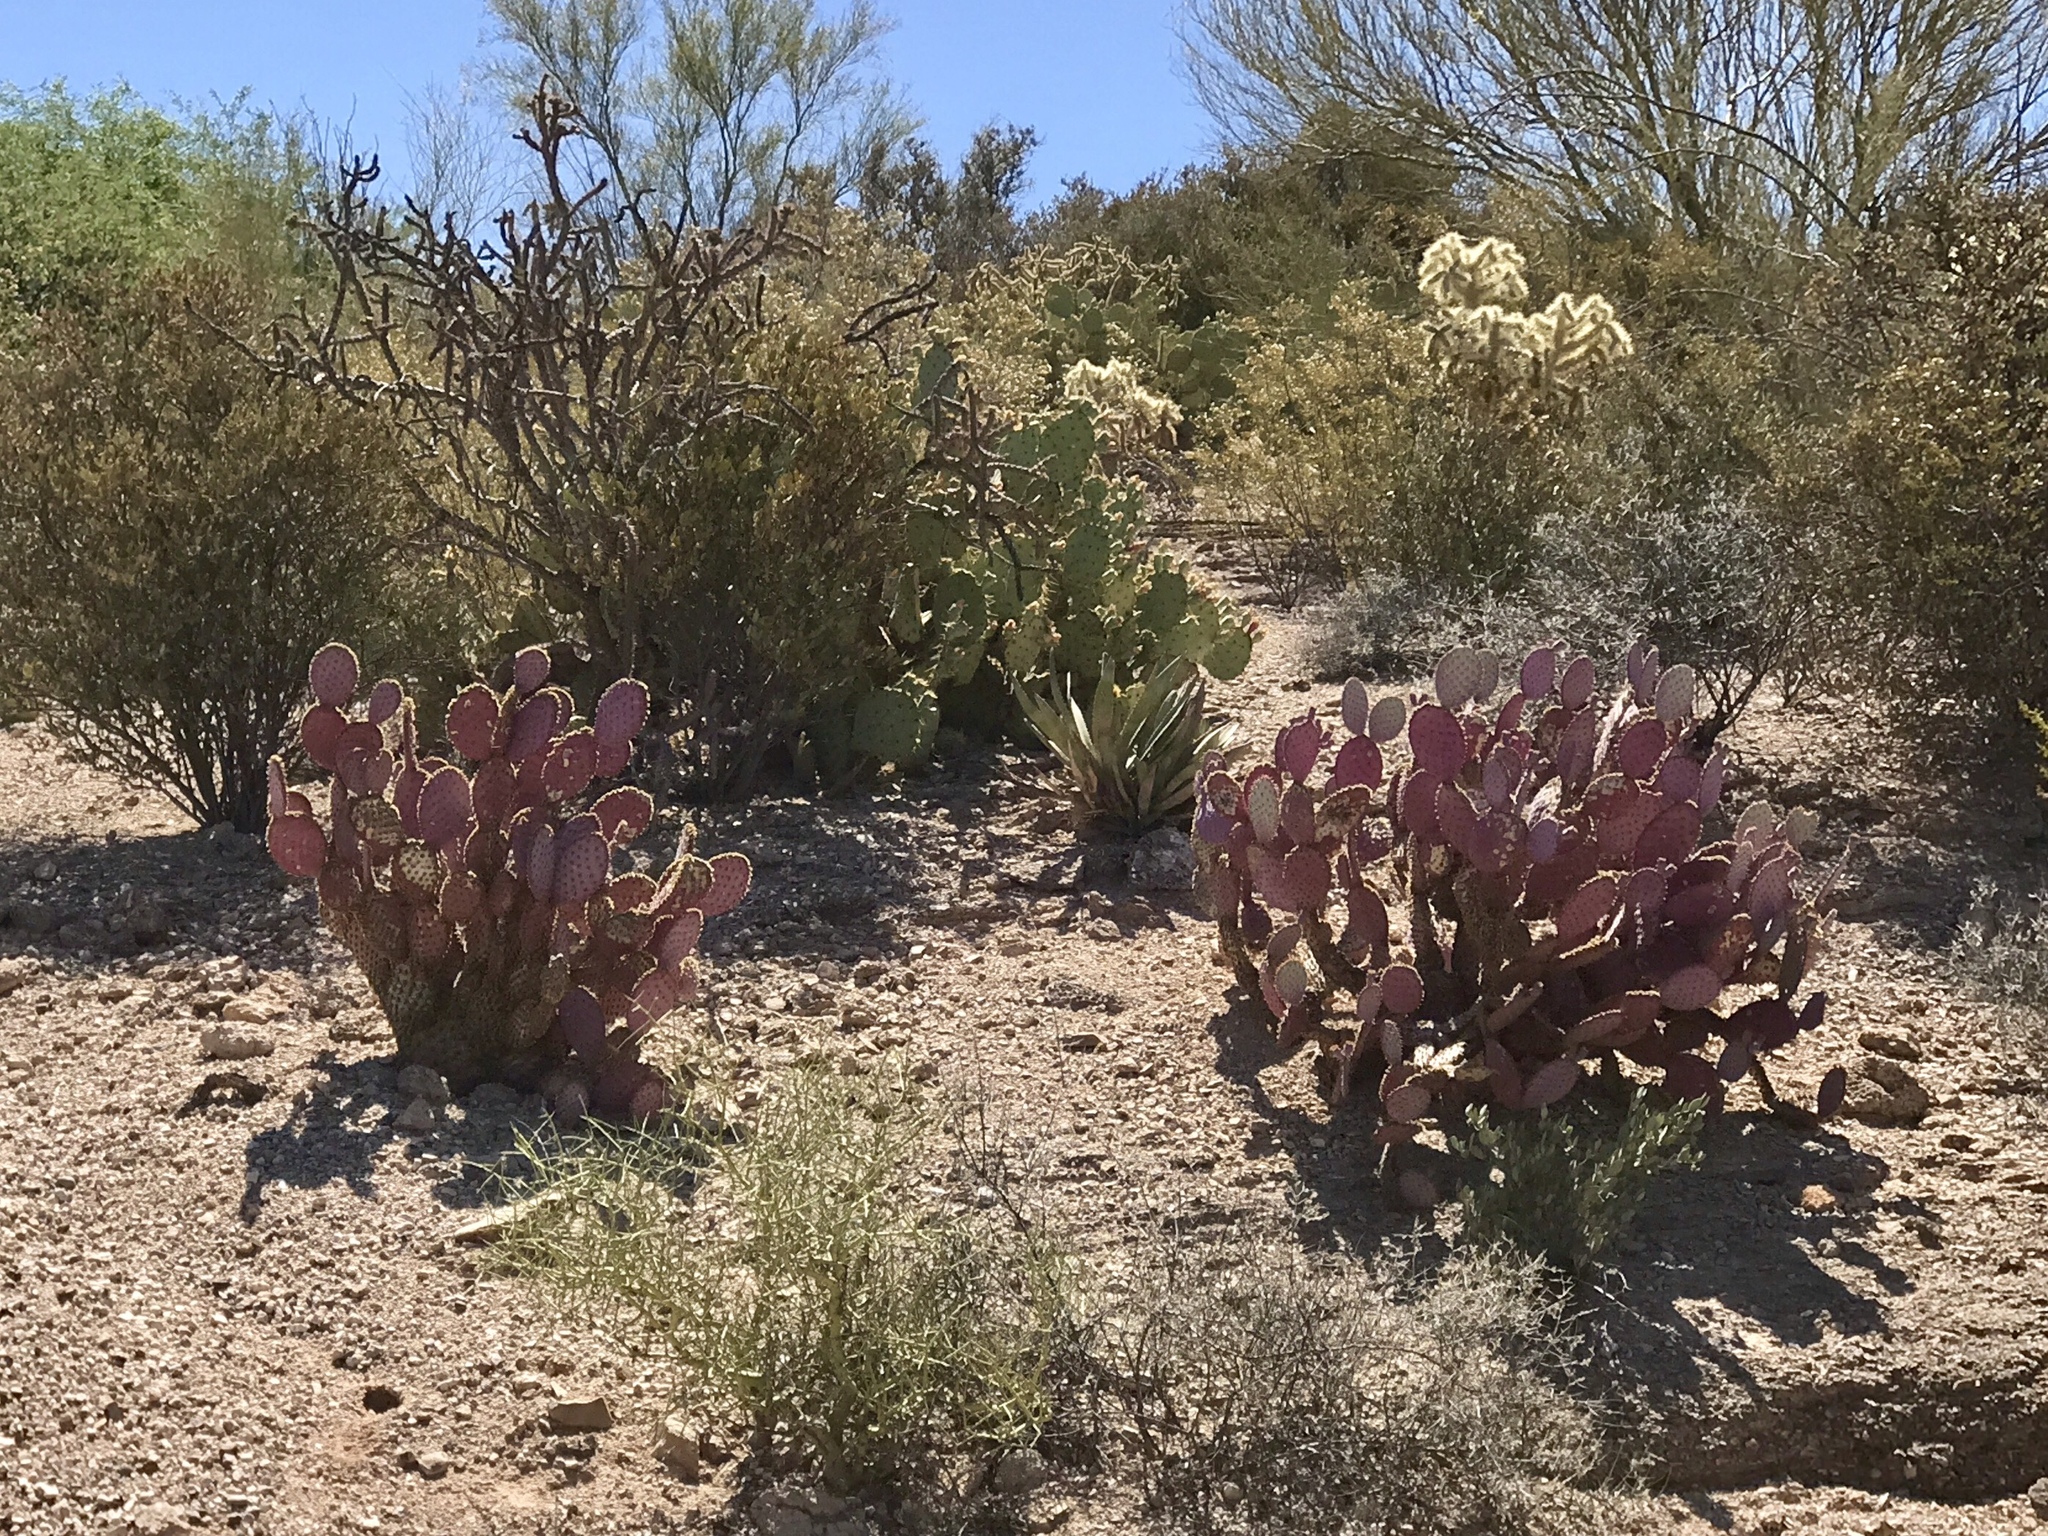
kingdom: Plantae
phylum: Tracheophyta
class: Magnoliopsida
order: Caryophyllales
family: Cactaceae
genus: Opuntia
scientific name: Opuntia gosseliniana
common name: Violet prickly-pear
